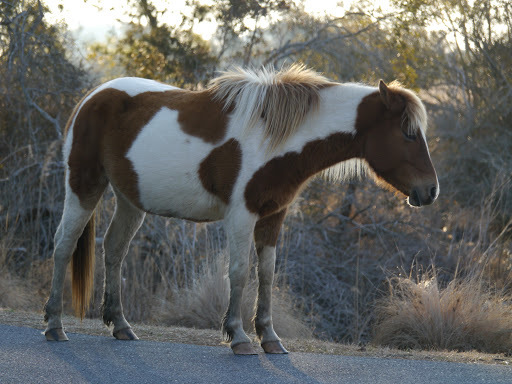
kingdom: Animalia
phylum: Chordata
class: Mammalia
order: Perissodactyla
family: Equidae
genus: Equus
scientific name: Equus caballus
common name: Horse
